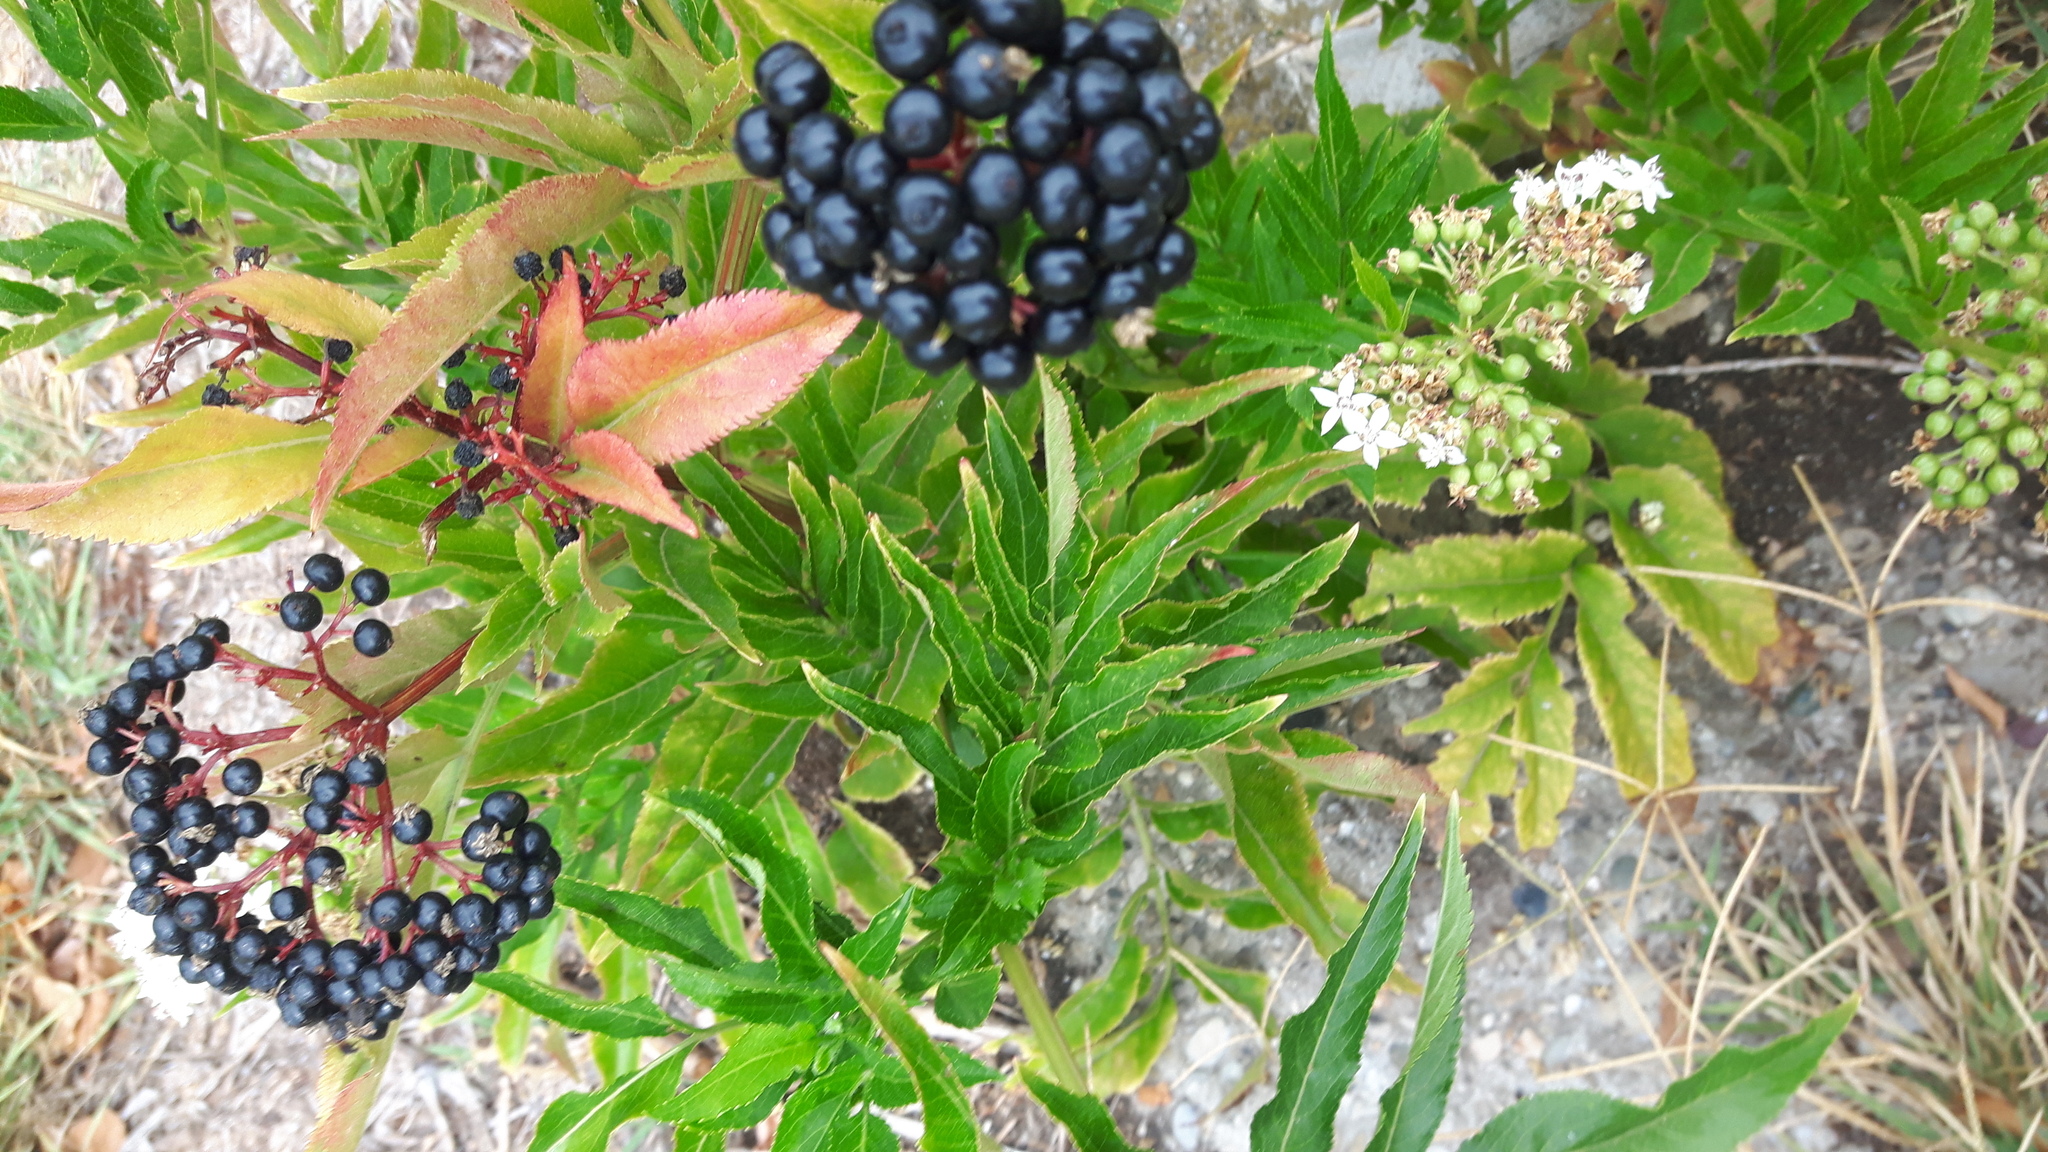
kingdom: Plantae
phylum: Tracheophyta
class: Magnoliopsida
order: Dipsacales
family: Viburnaceae
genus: Sambucus
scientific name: Sambucus ebulus
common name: Dwarf elder
